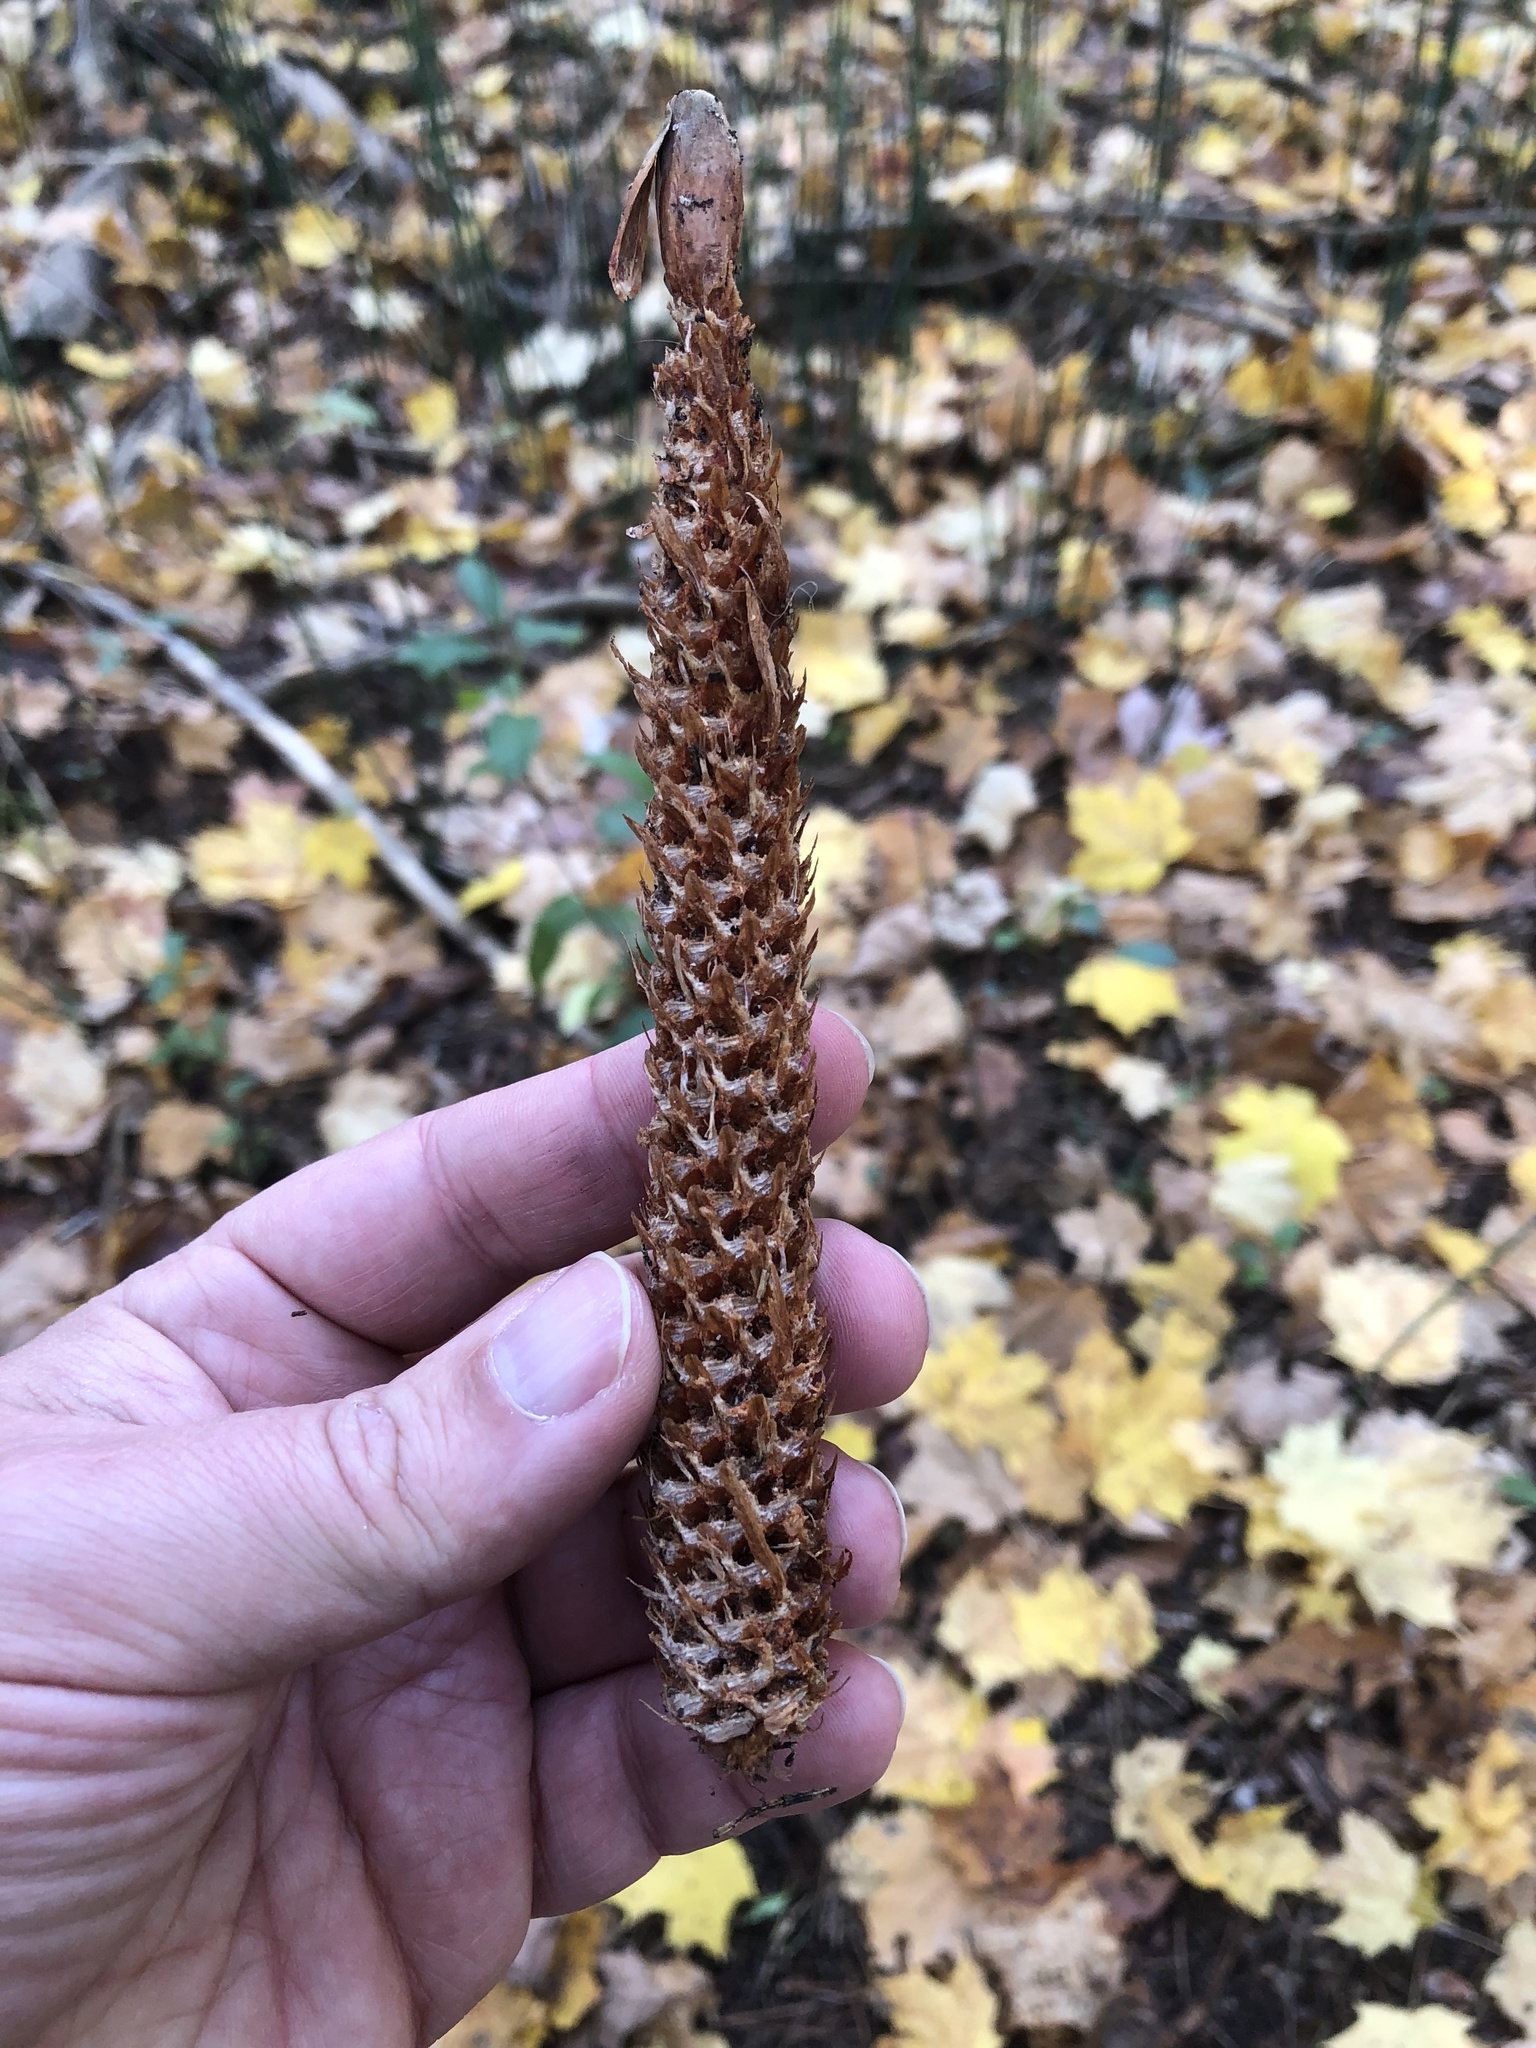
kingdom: Plantae
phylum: Tracheophyta
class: Pinopsida
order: Pinales
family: Pinaceae
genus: Picea
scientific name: Picea abies
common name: Norway spruce
